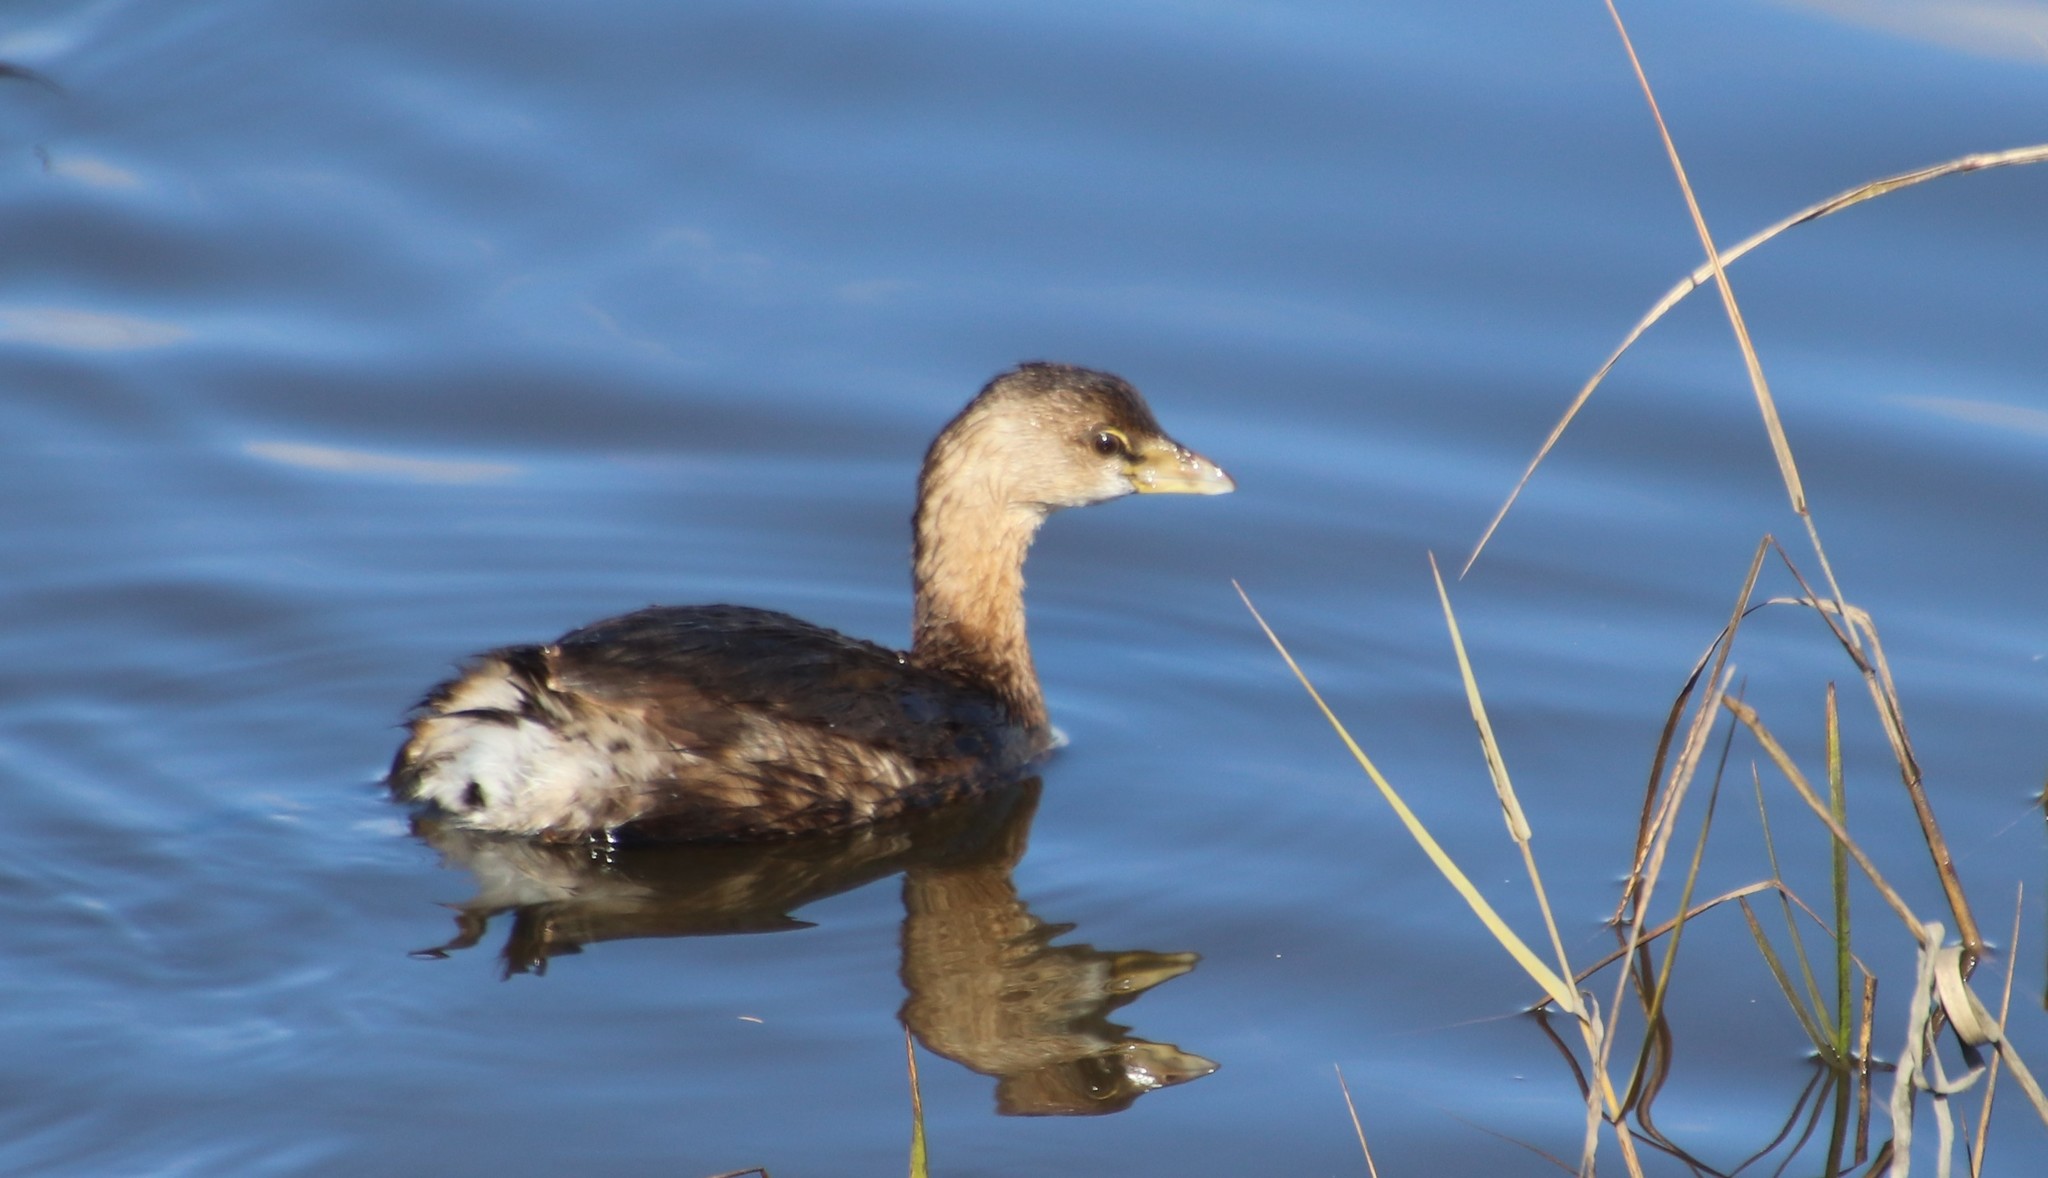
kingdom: Animalia
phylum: Chordata
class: Aves
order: Podicipediformes
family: Podicipedidae
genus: Podilymbus
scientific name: Podilymbus podiceps
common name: Pied-billed grebe
